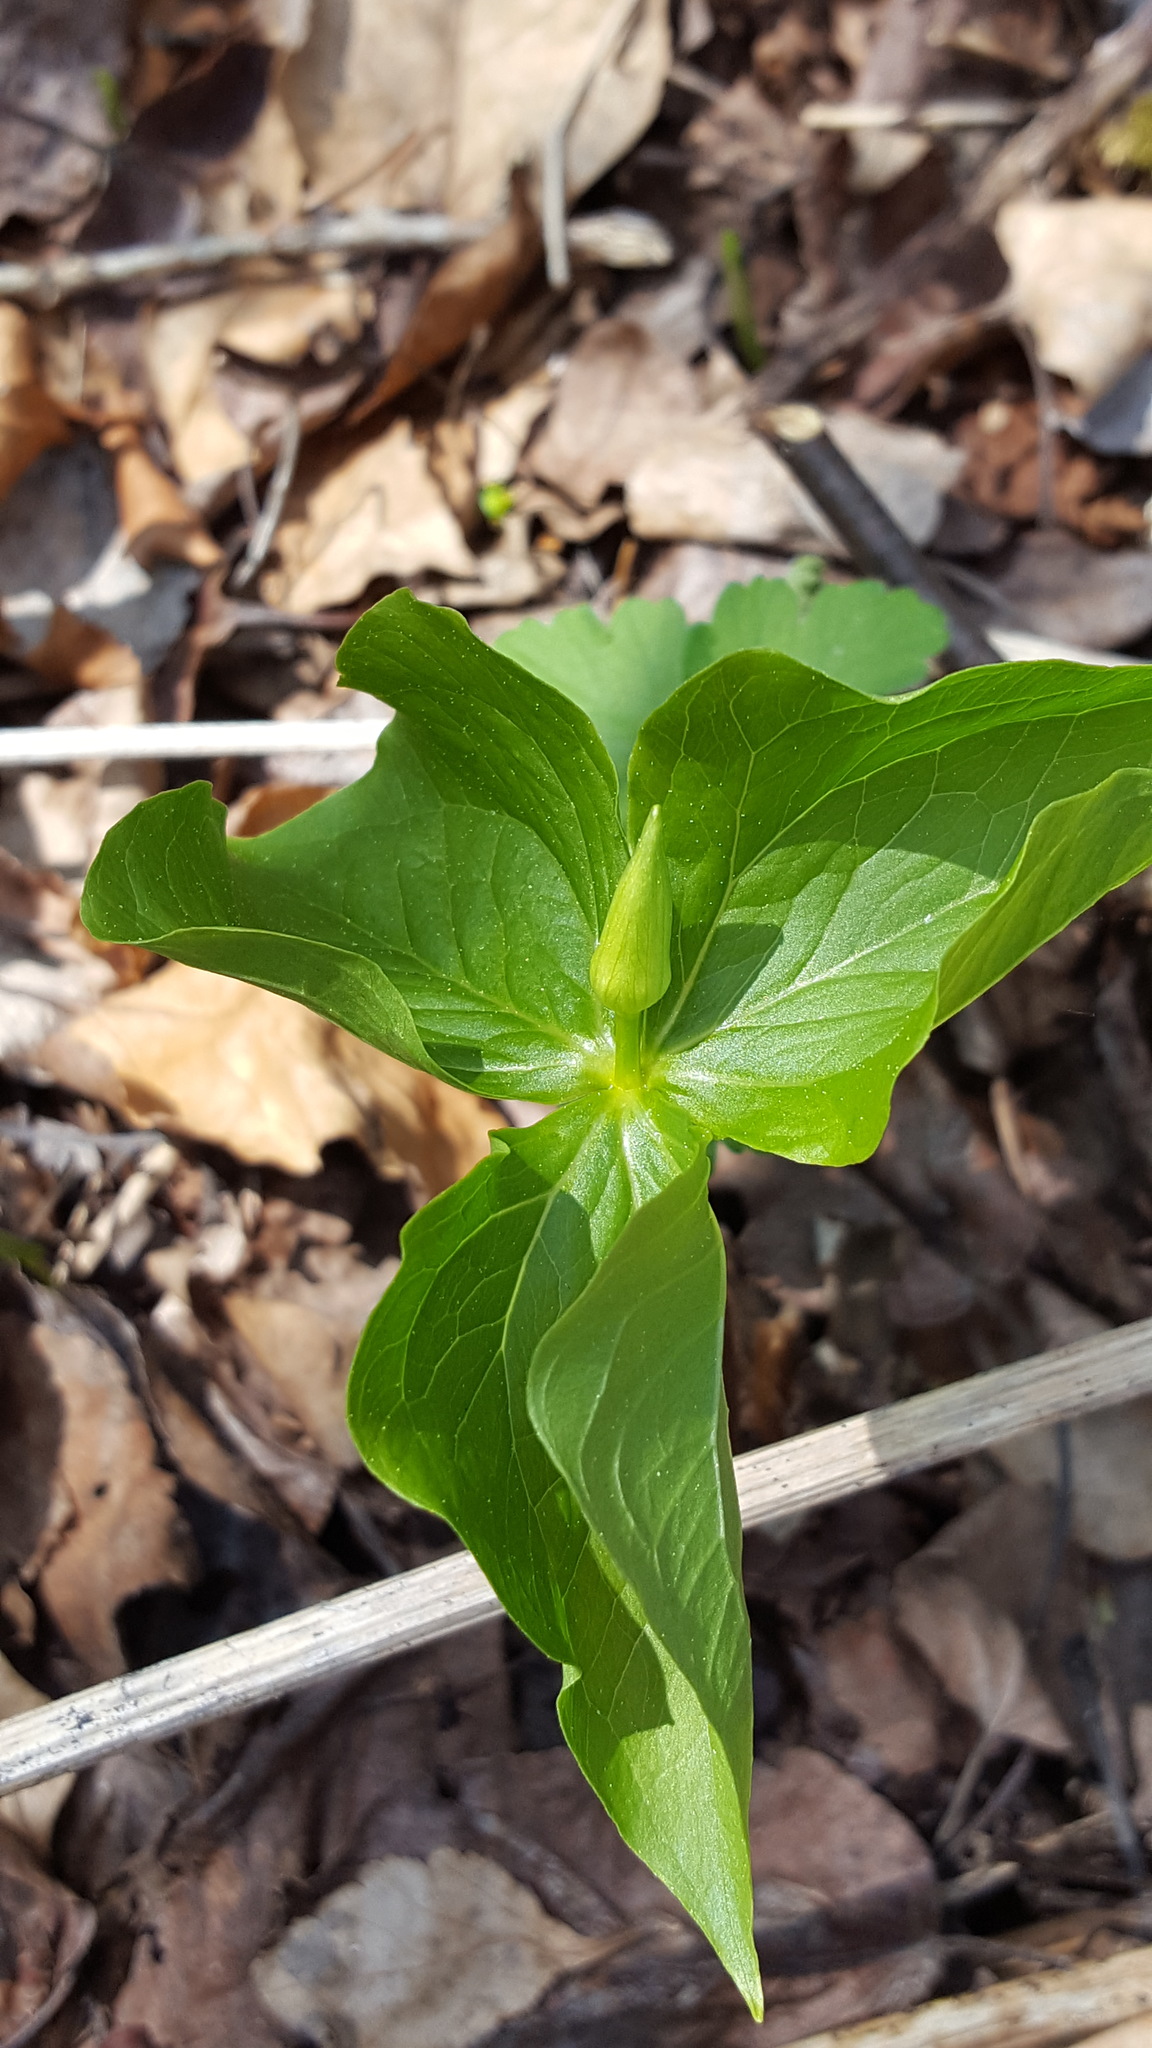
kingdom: Plantae
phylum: Tracheophyta
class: Liliopsida
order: Liliales
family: Melanthiaceae
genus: Trillium
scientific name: Trillium cernuum
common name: Nodding trillium
